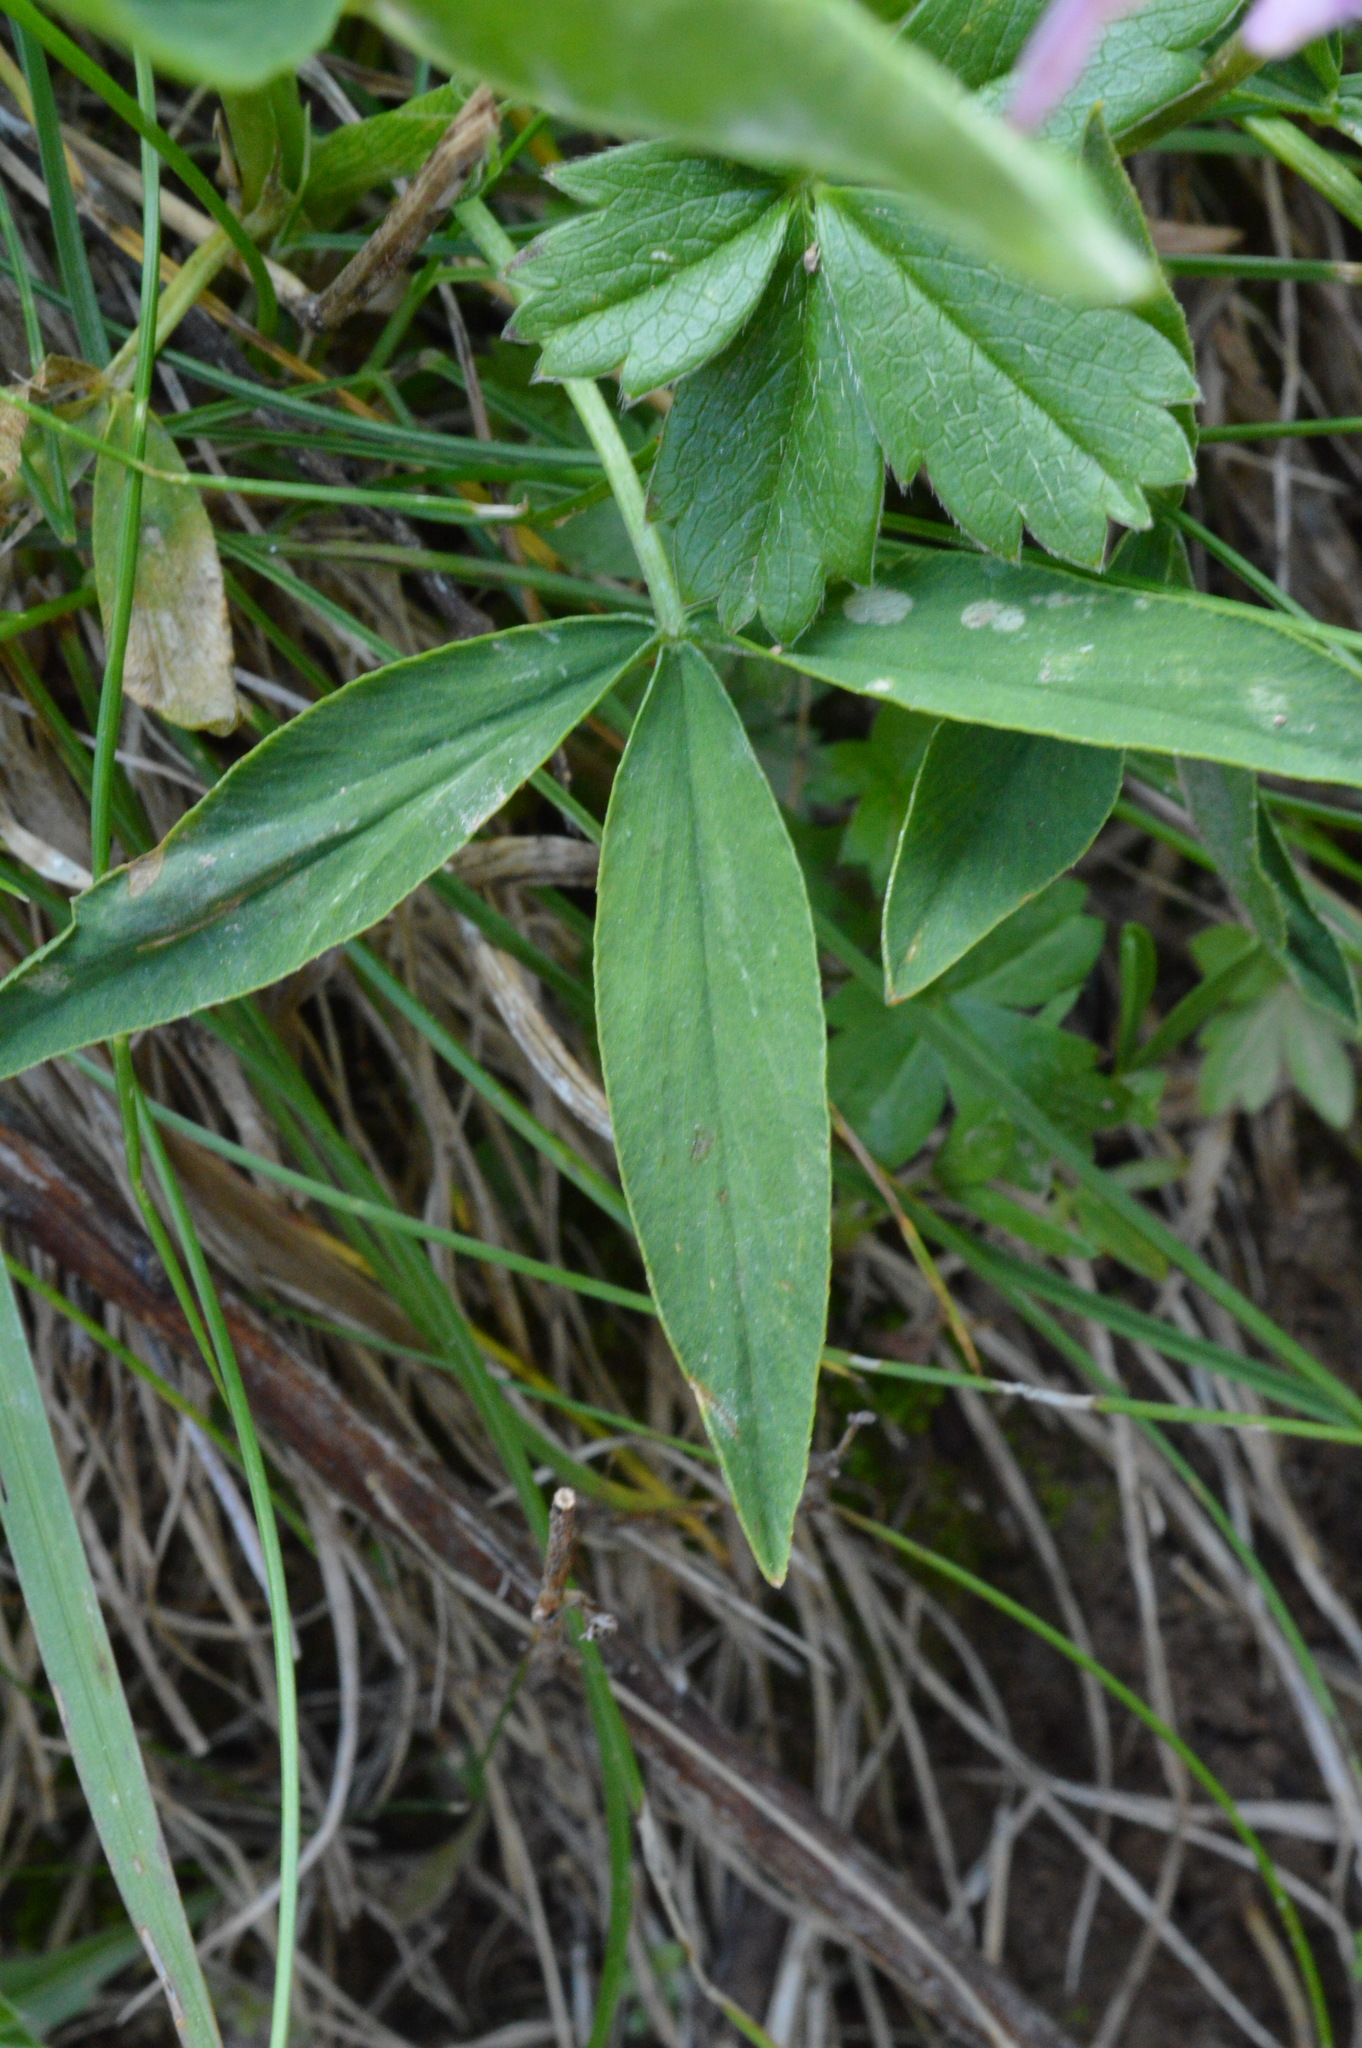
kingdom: Plantae
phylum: Tracheophyta
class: Magnoliopsida
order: Fabales
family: Fabaceae
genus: Trifolium
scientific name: Trifolium alpinum
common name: Alpine clover
